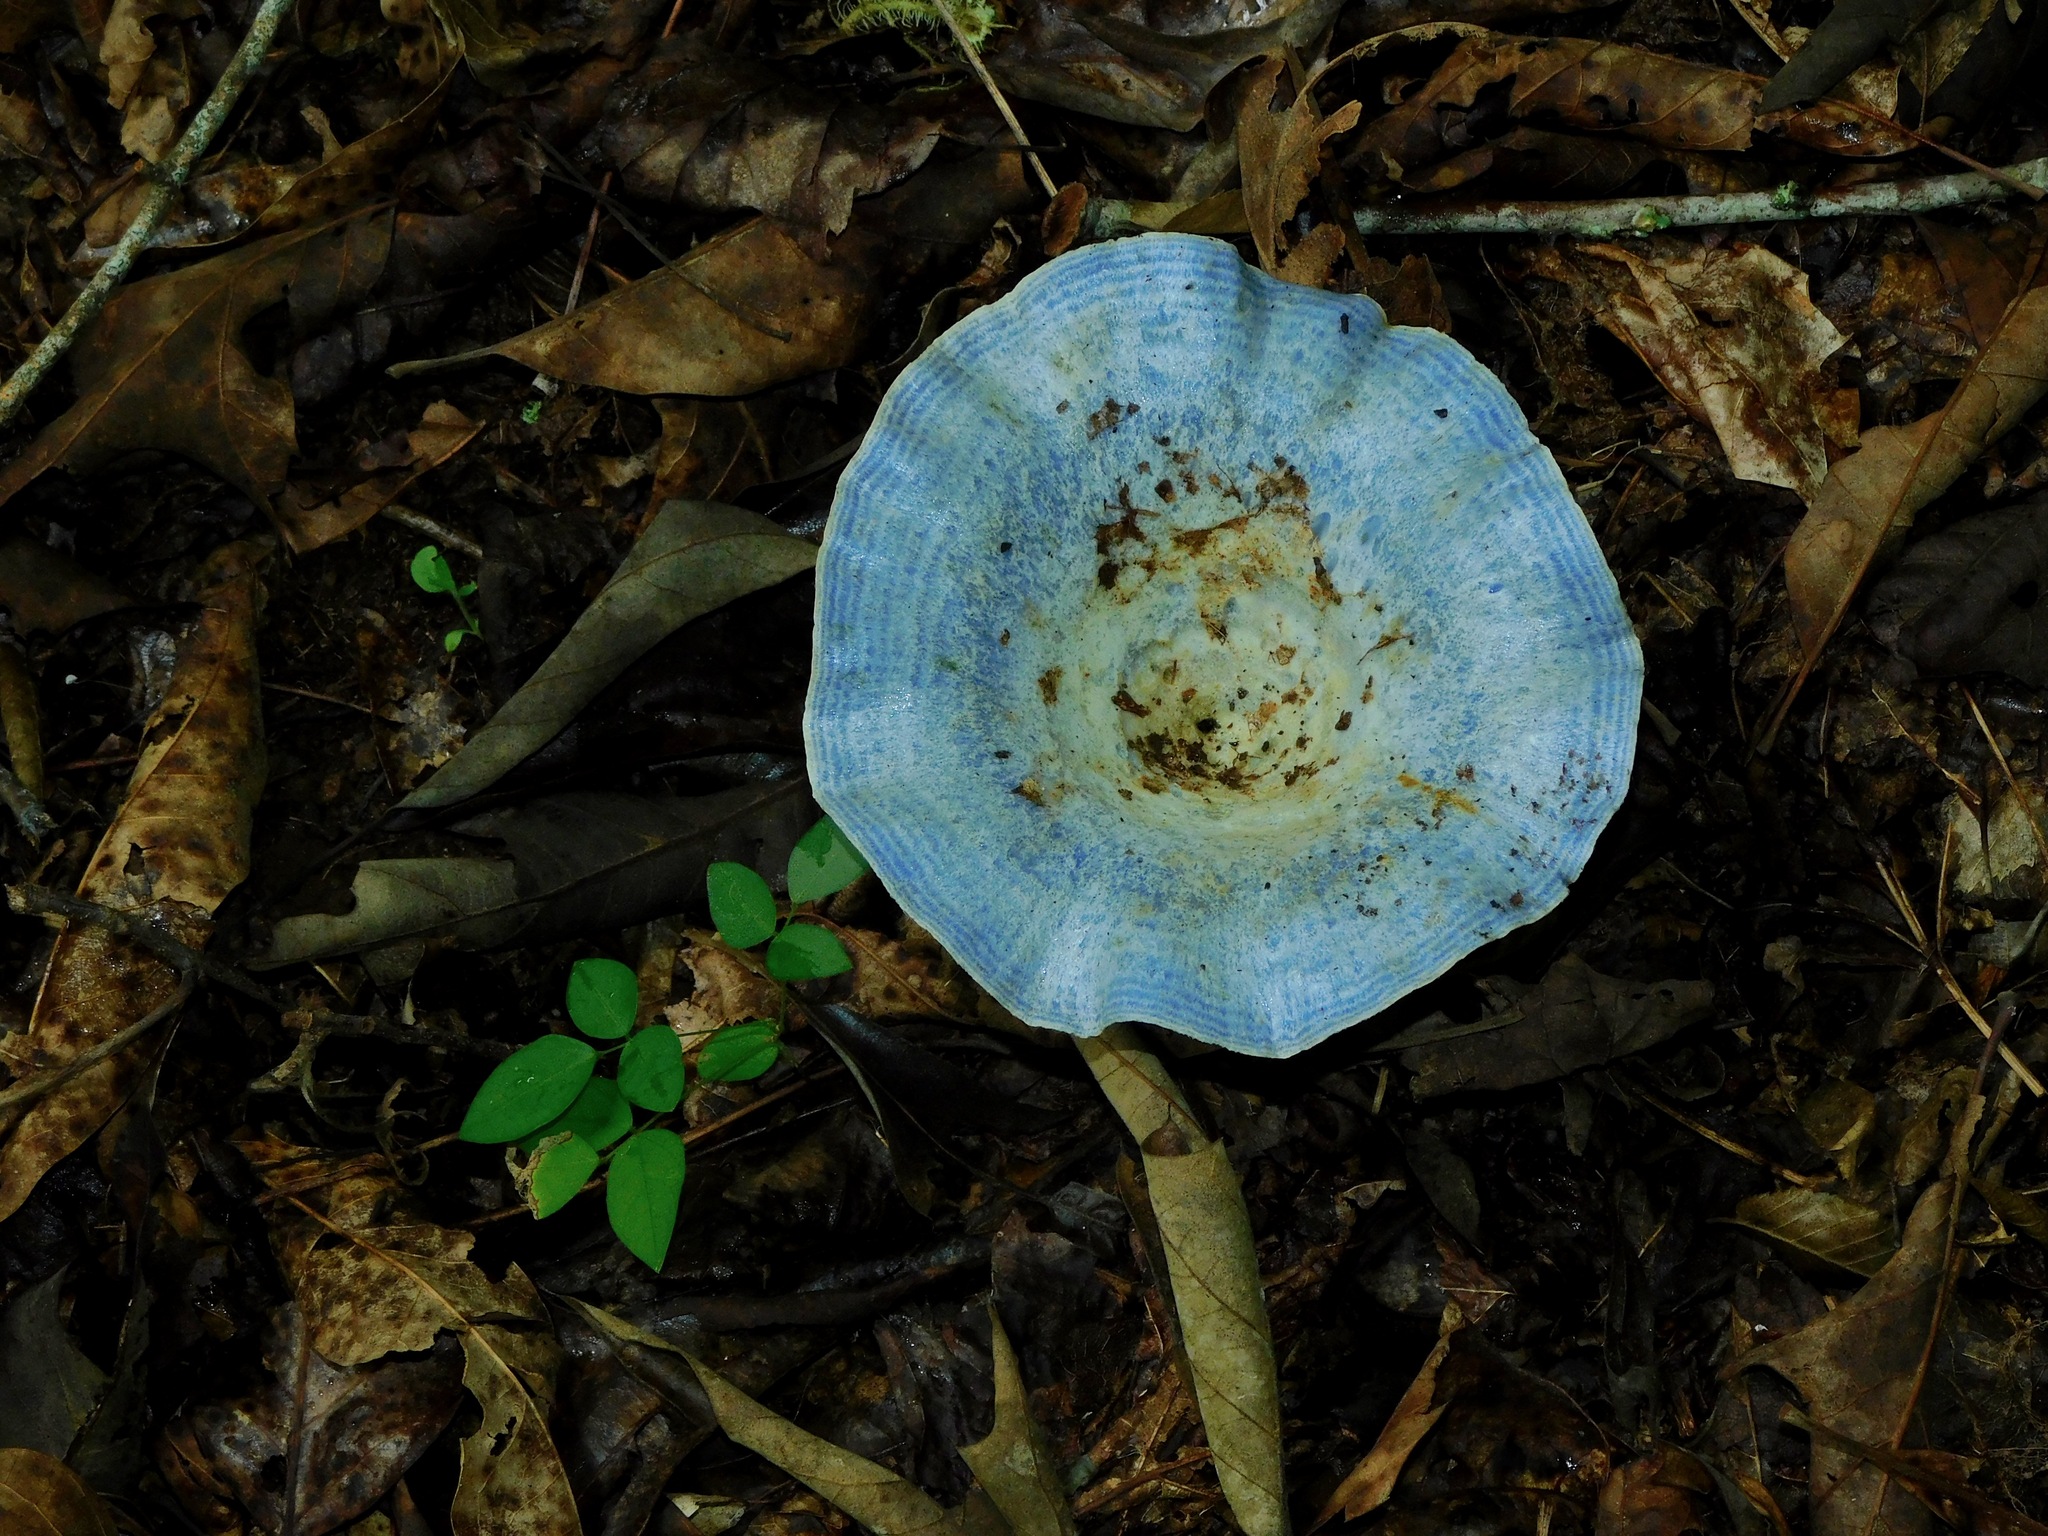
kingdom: Fungi
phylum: Basidiomycota
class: Agaricomycetes
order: Russulales
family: Russulaceae
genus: Lactarius
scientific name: Lactarius indigo
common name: Indigo milk cap
